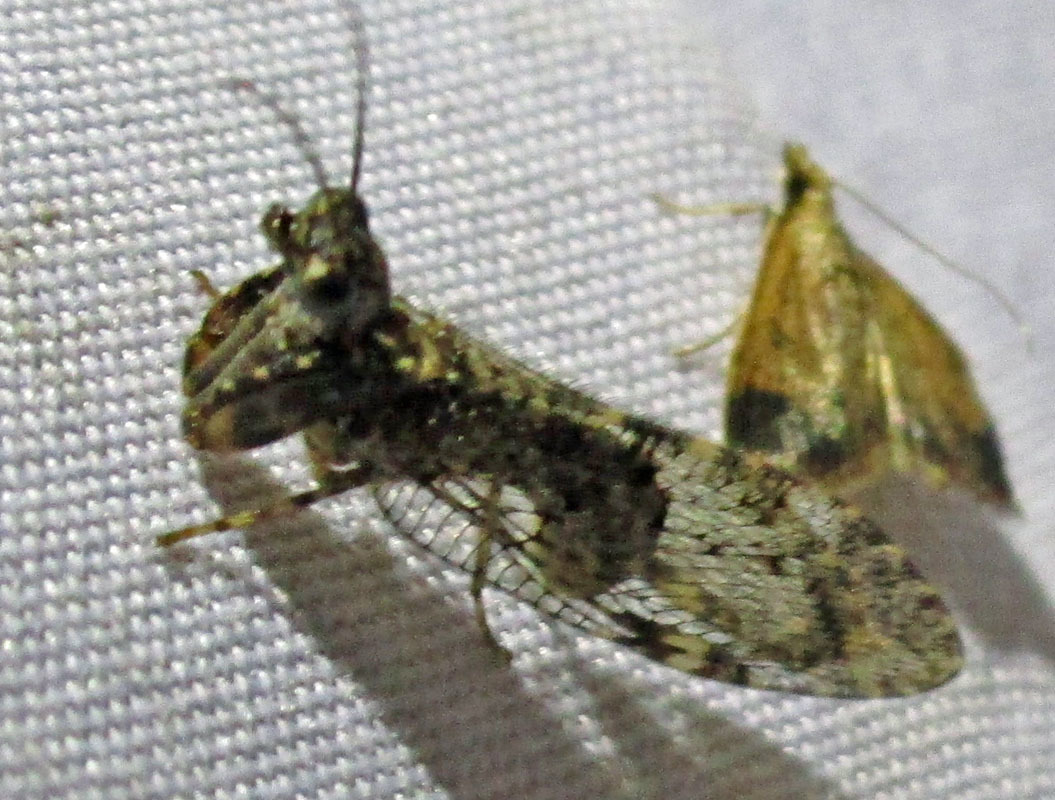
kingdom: Animalia
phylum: Arthropoda
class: Insecta
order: Neuroptera
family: Mantispidae
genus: Plega
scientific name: Plega
